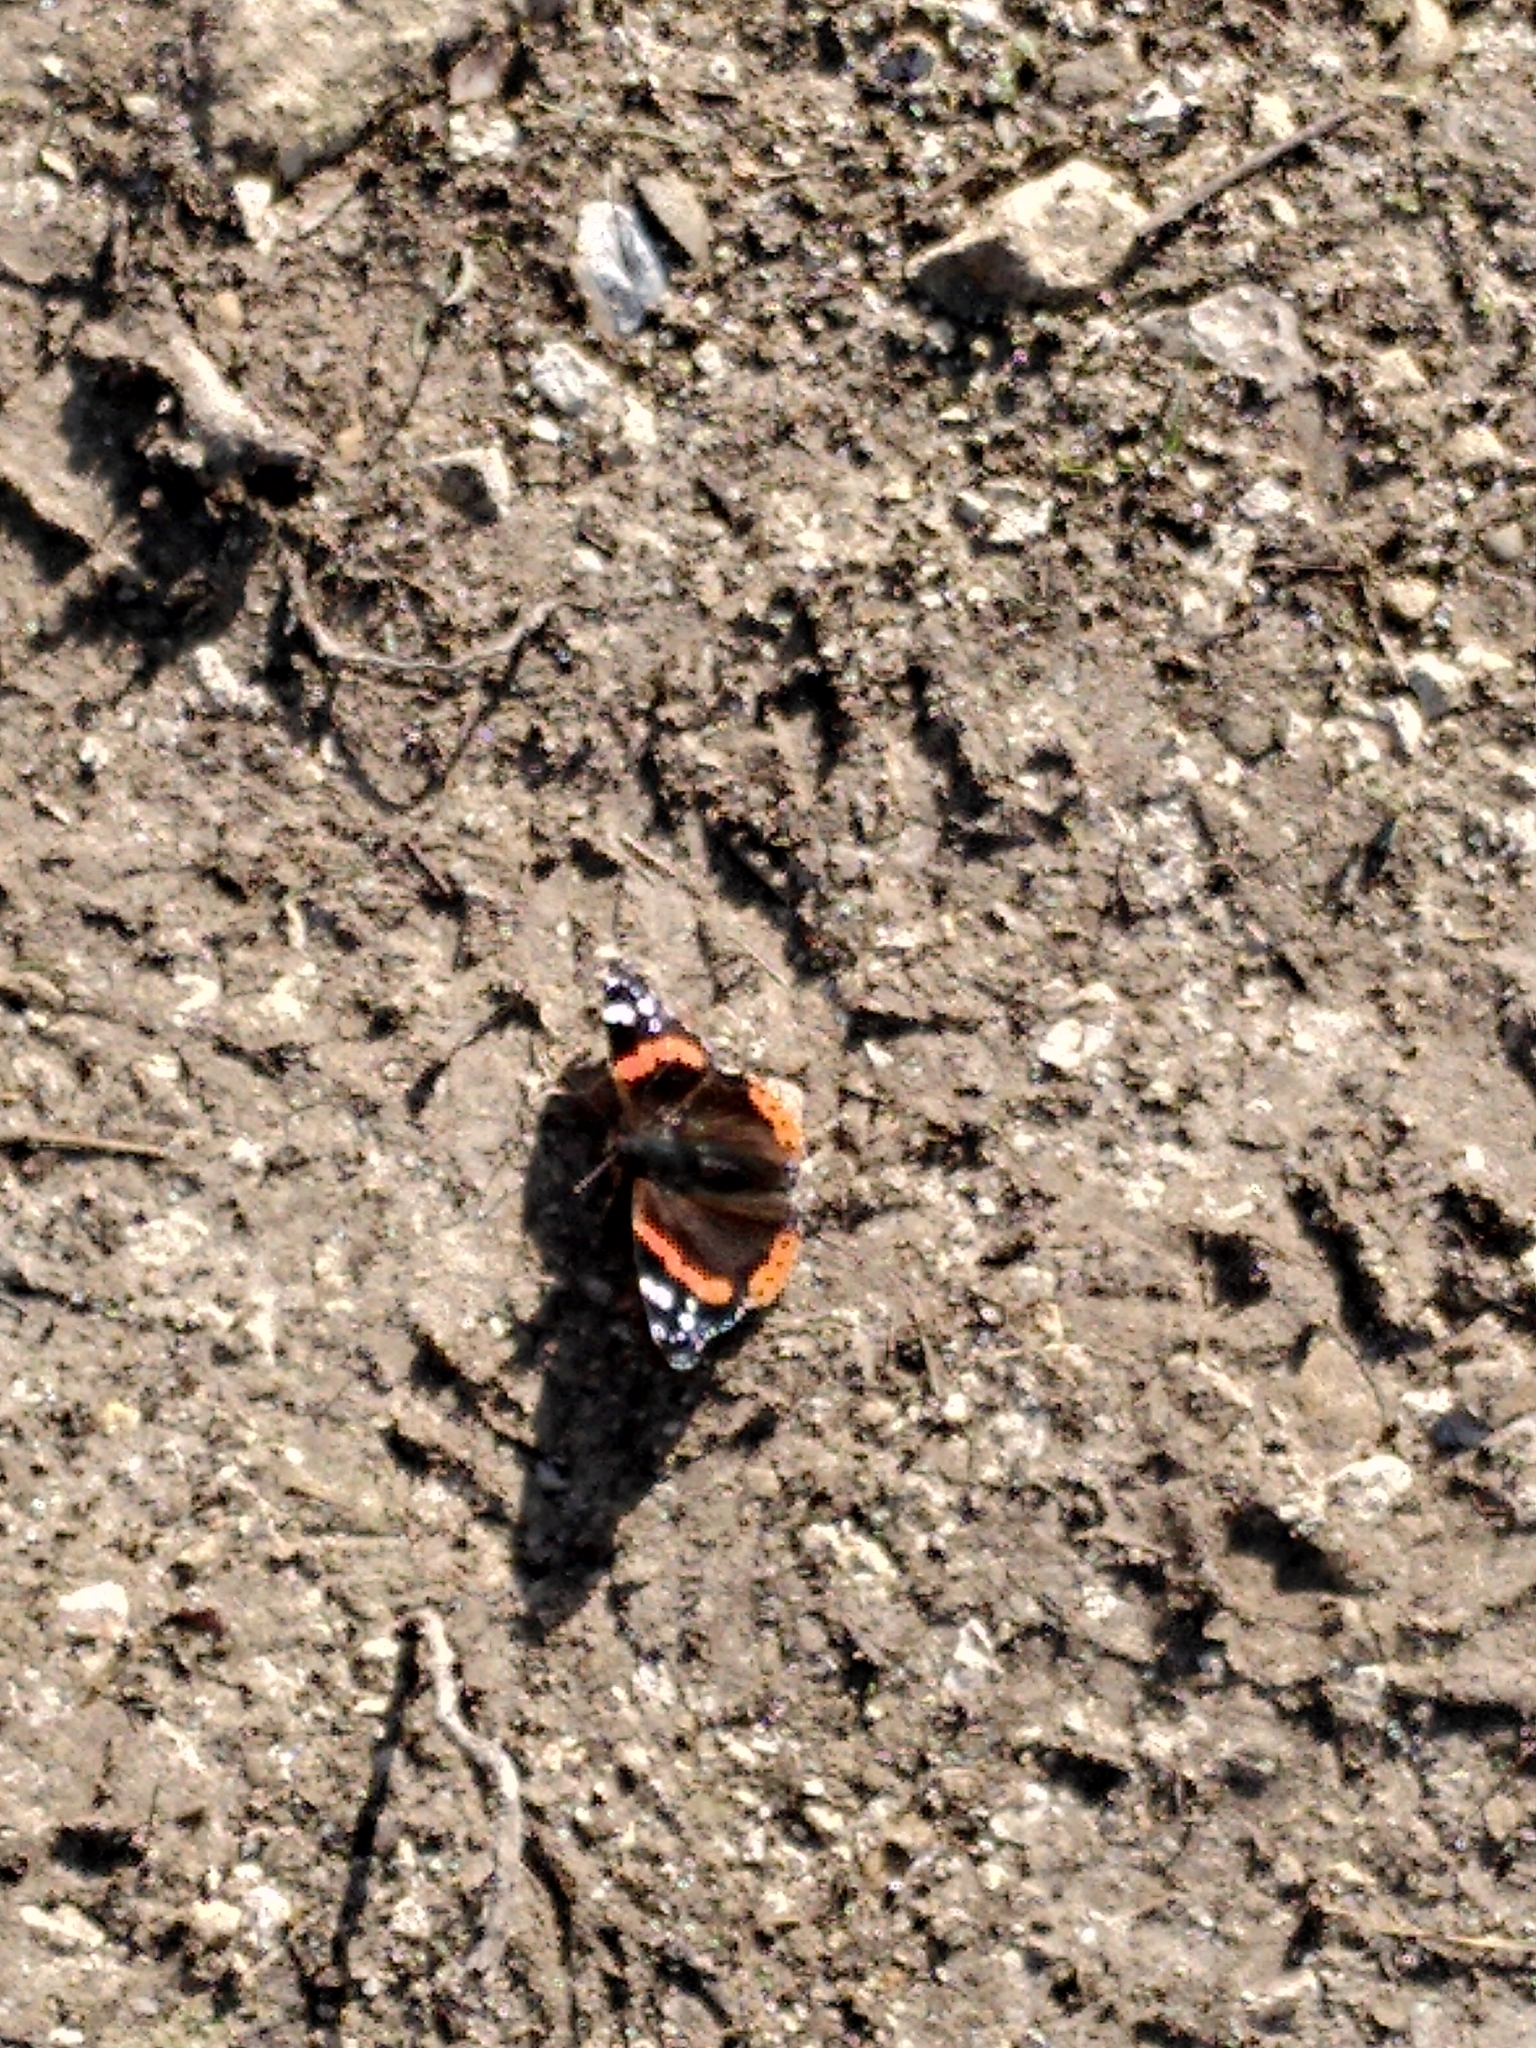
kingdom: Animalia
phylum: Arthropoda
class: Insecta
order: Lepidoptera
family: Nymphalidae
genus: Vanessa
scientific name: Vanessa atalanta
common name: Red admiral
